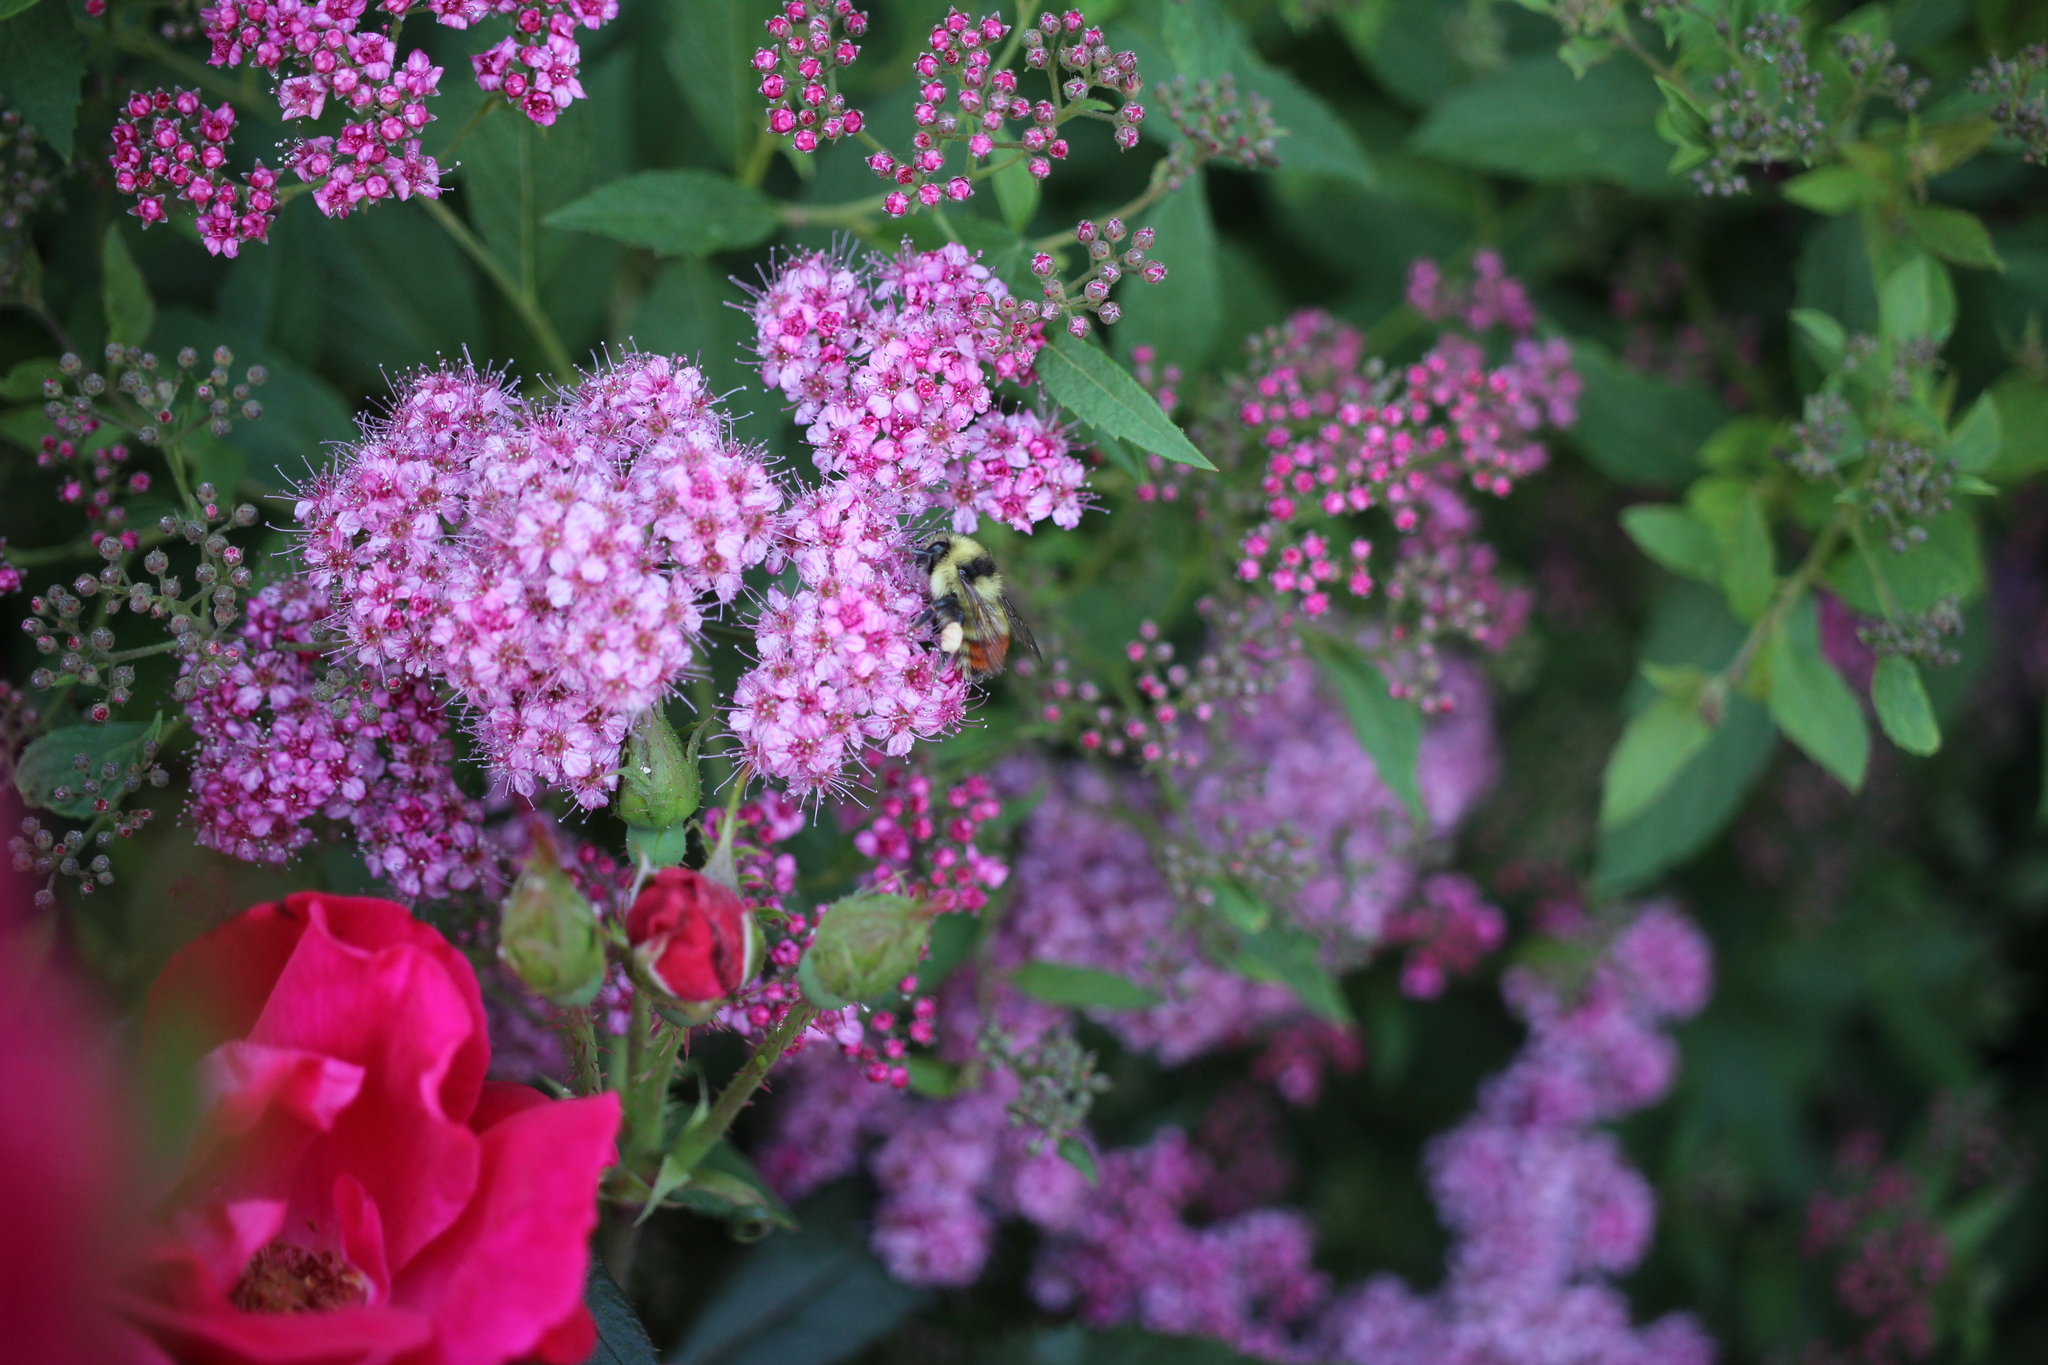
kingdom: Animalia
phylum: Arthropoda
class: Insecta
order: Hymenoptera
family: Apidae
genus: Bombus
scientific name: Bombus centralis
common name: Central bumble bee
